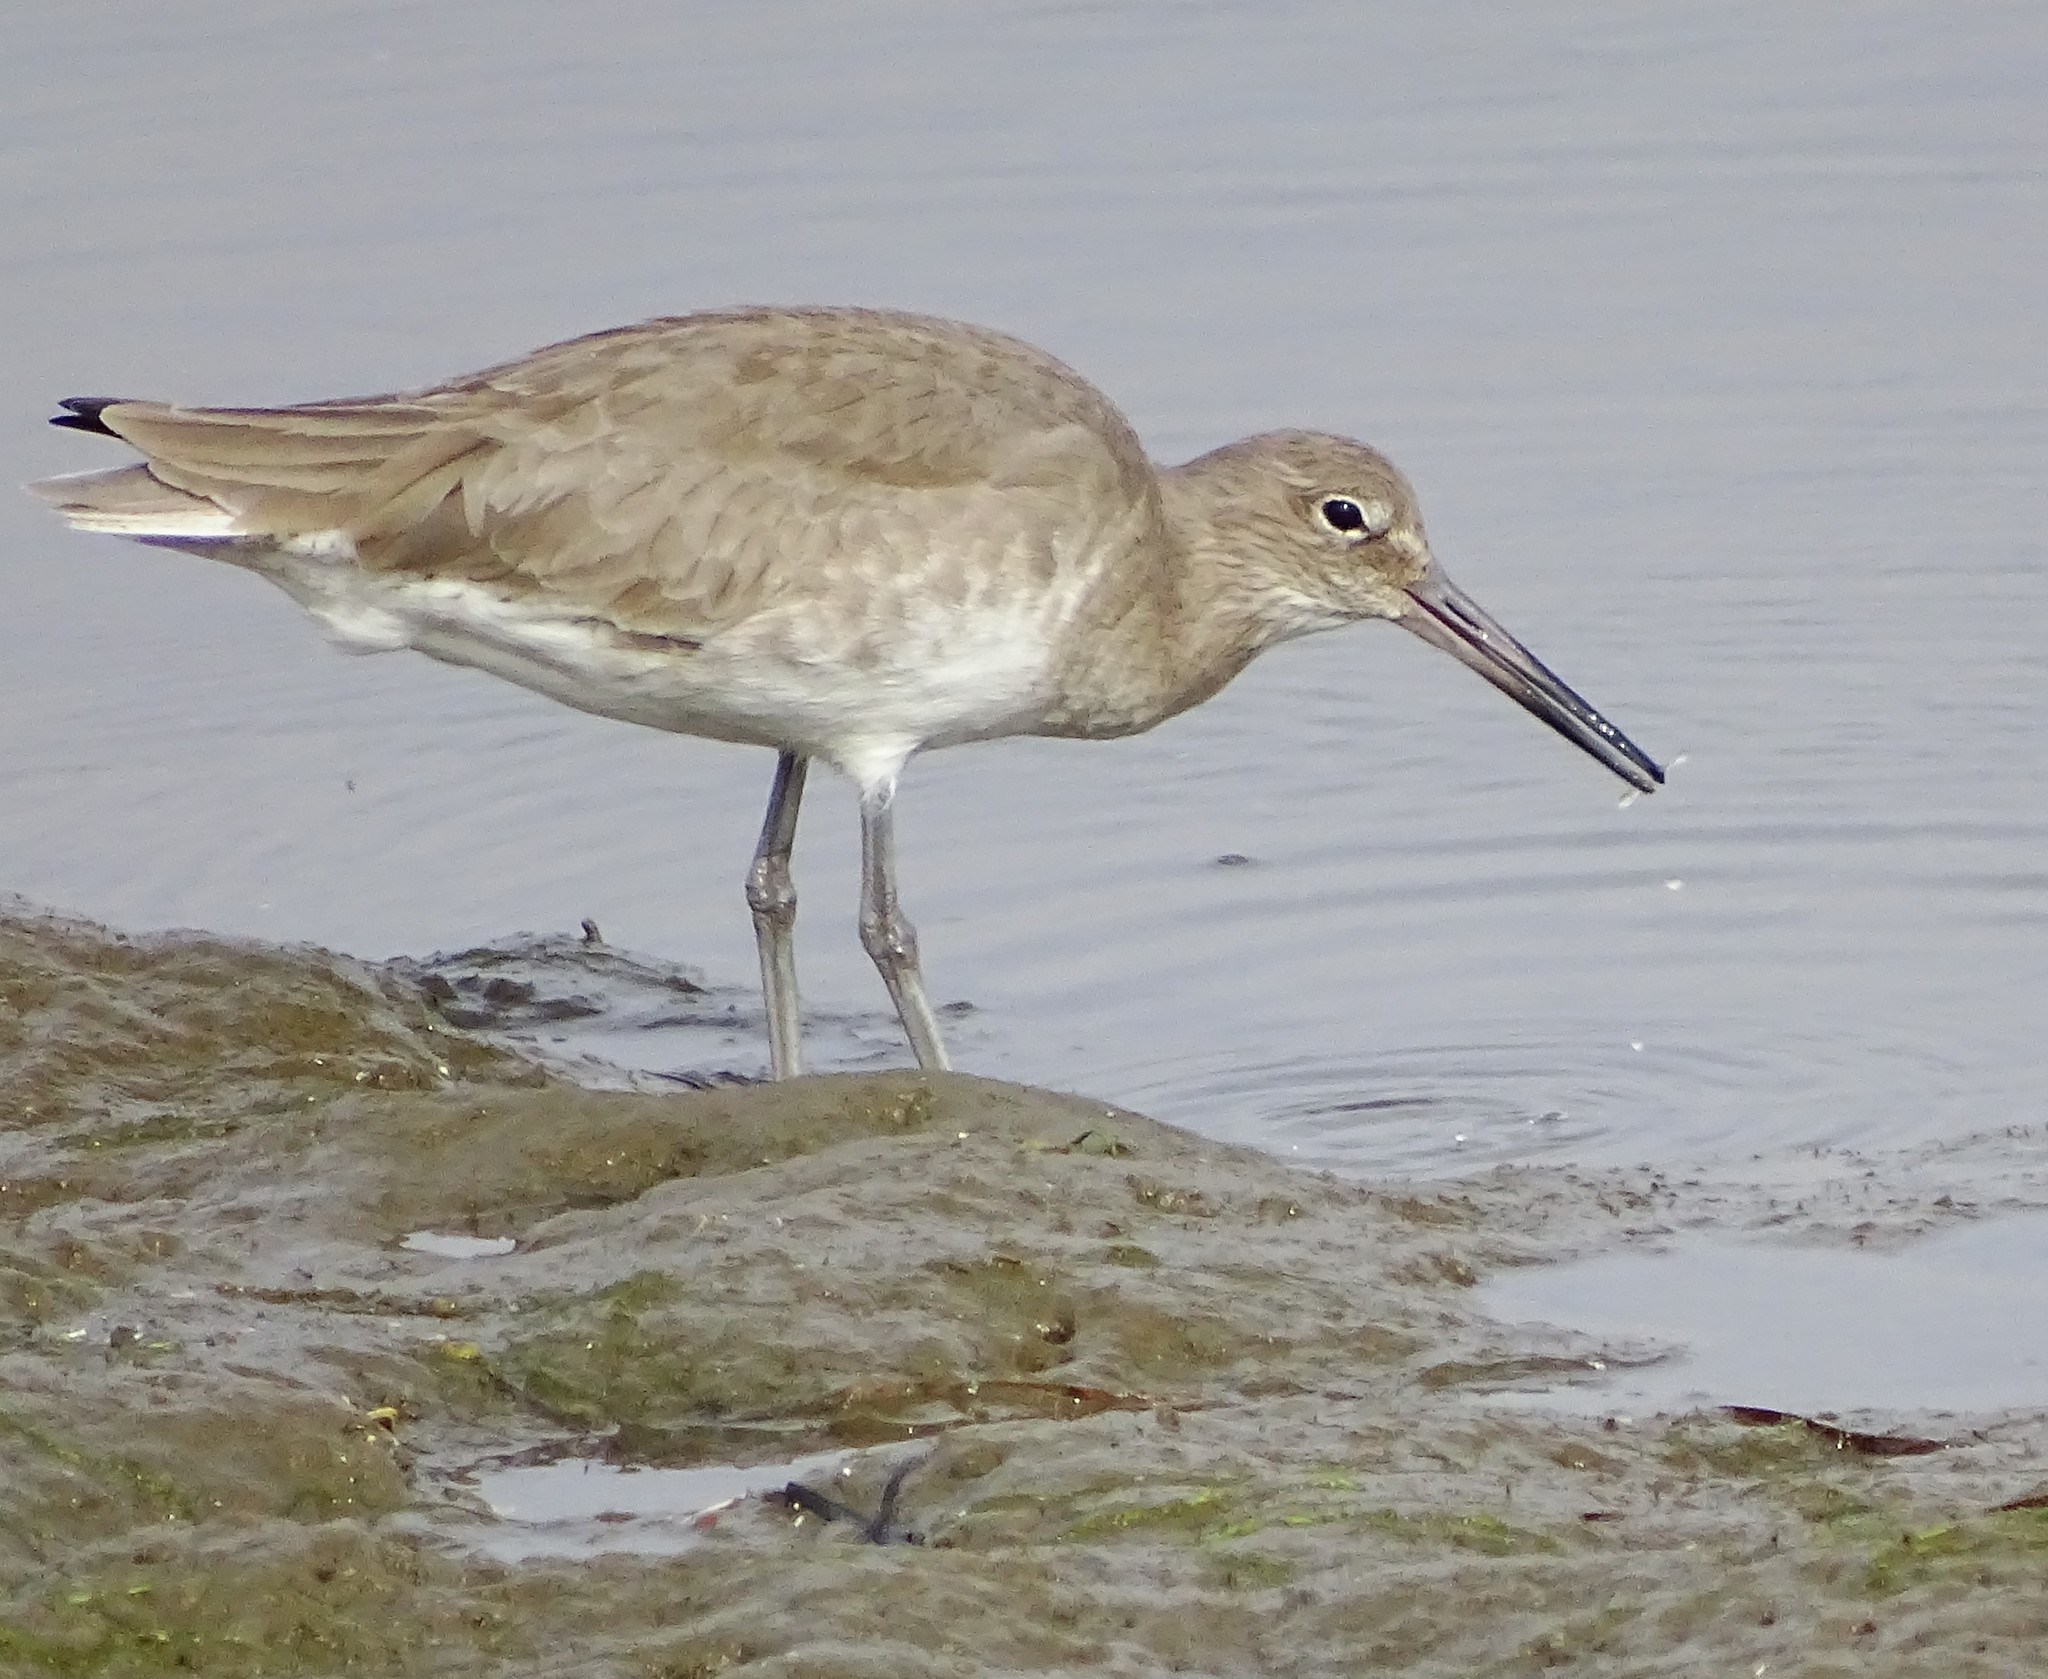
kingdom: Animalia
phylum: Chordata
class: Aves
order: Charadriiformes
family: Scolopacidae
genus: Tringa
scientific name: Tringa semipalmata
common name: Willet
